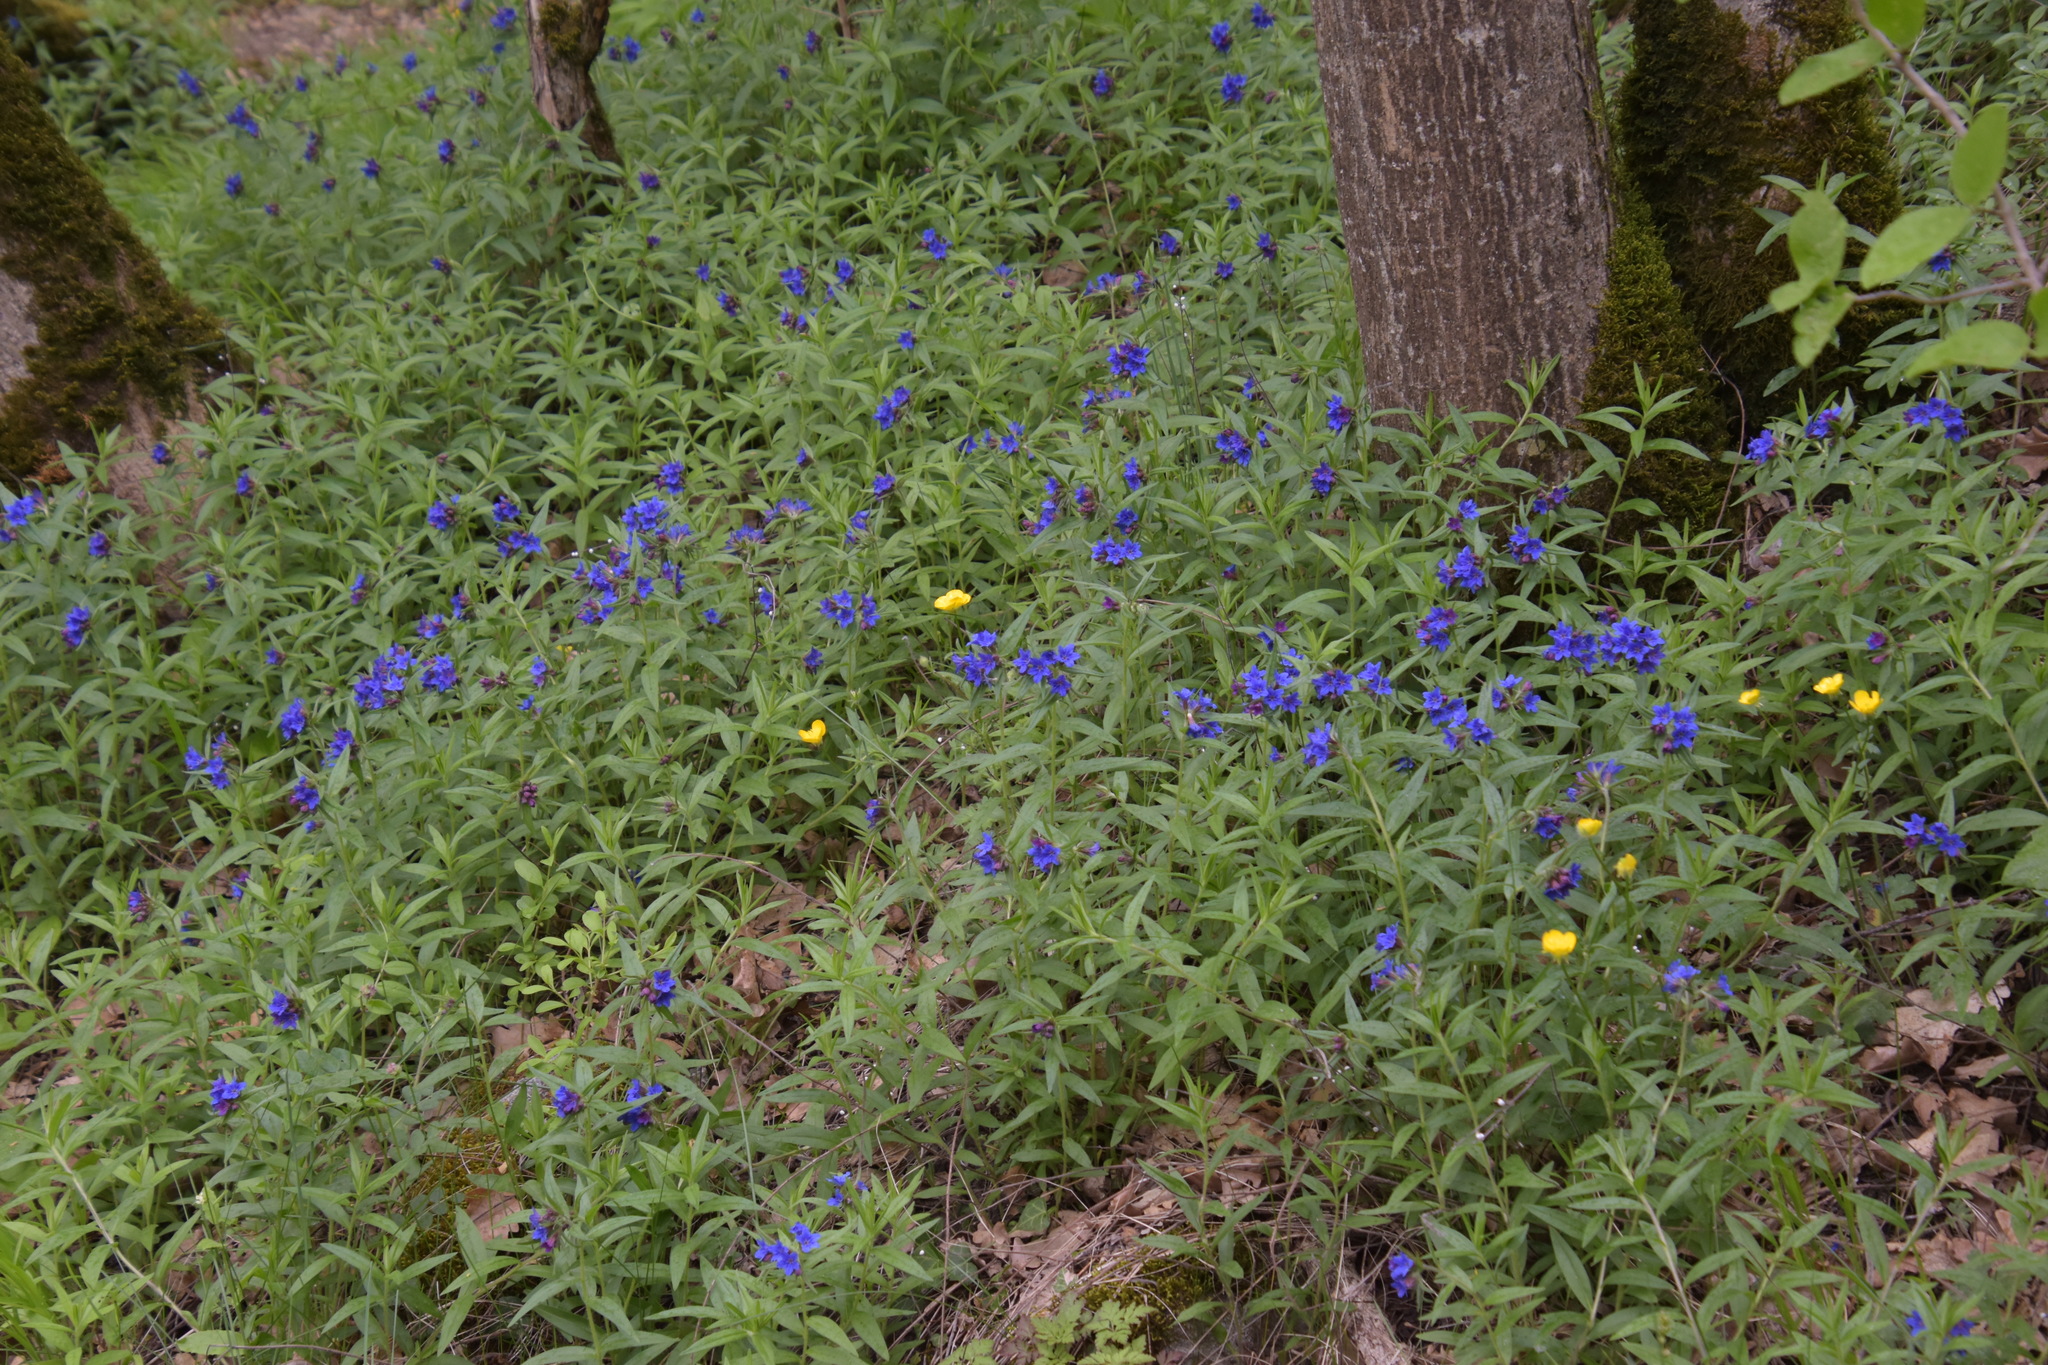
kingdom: Plantae
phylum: Tracheophyta
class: Magnoliopsida
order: Boraginales
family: Boraginaceae
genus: Aegonychon
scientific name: Aegonychon purpurocaeruleum
